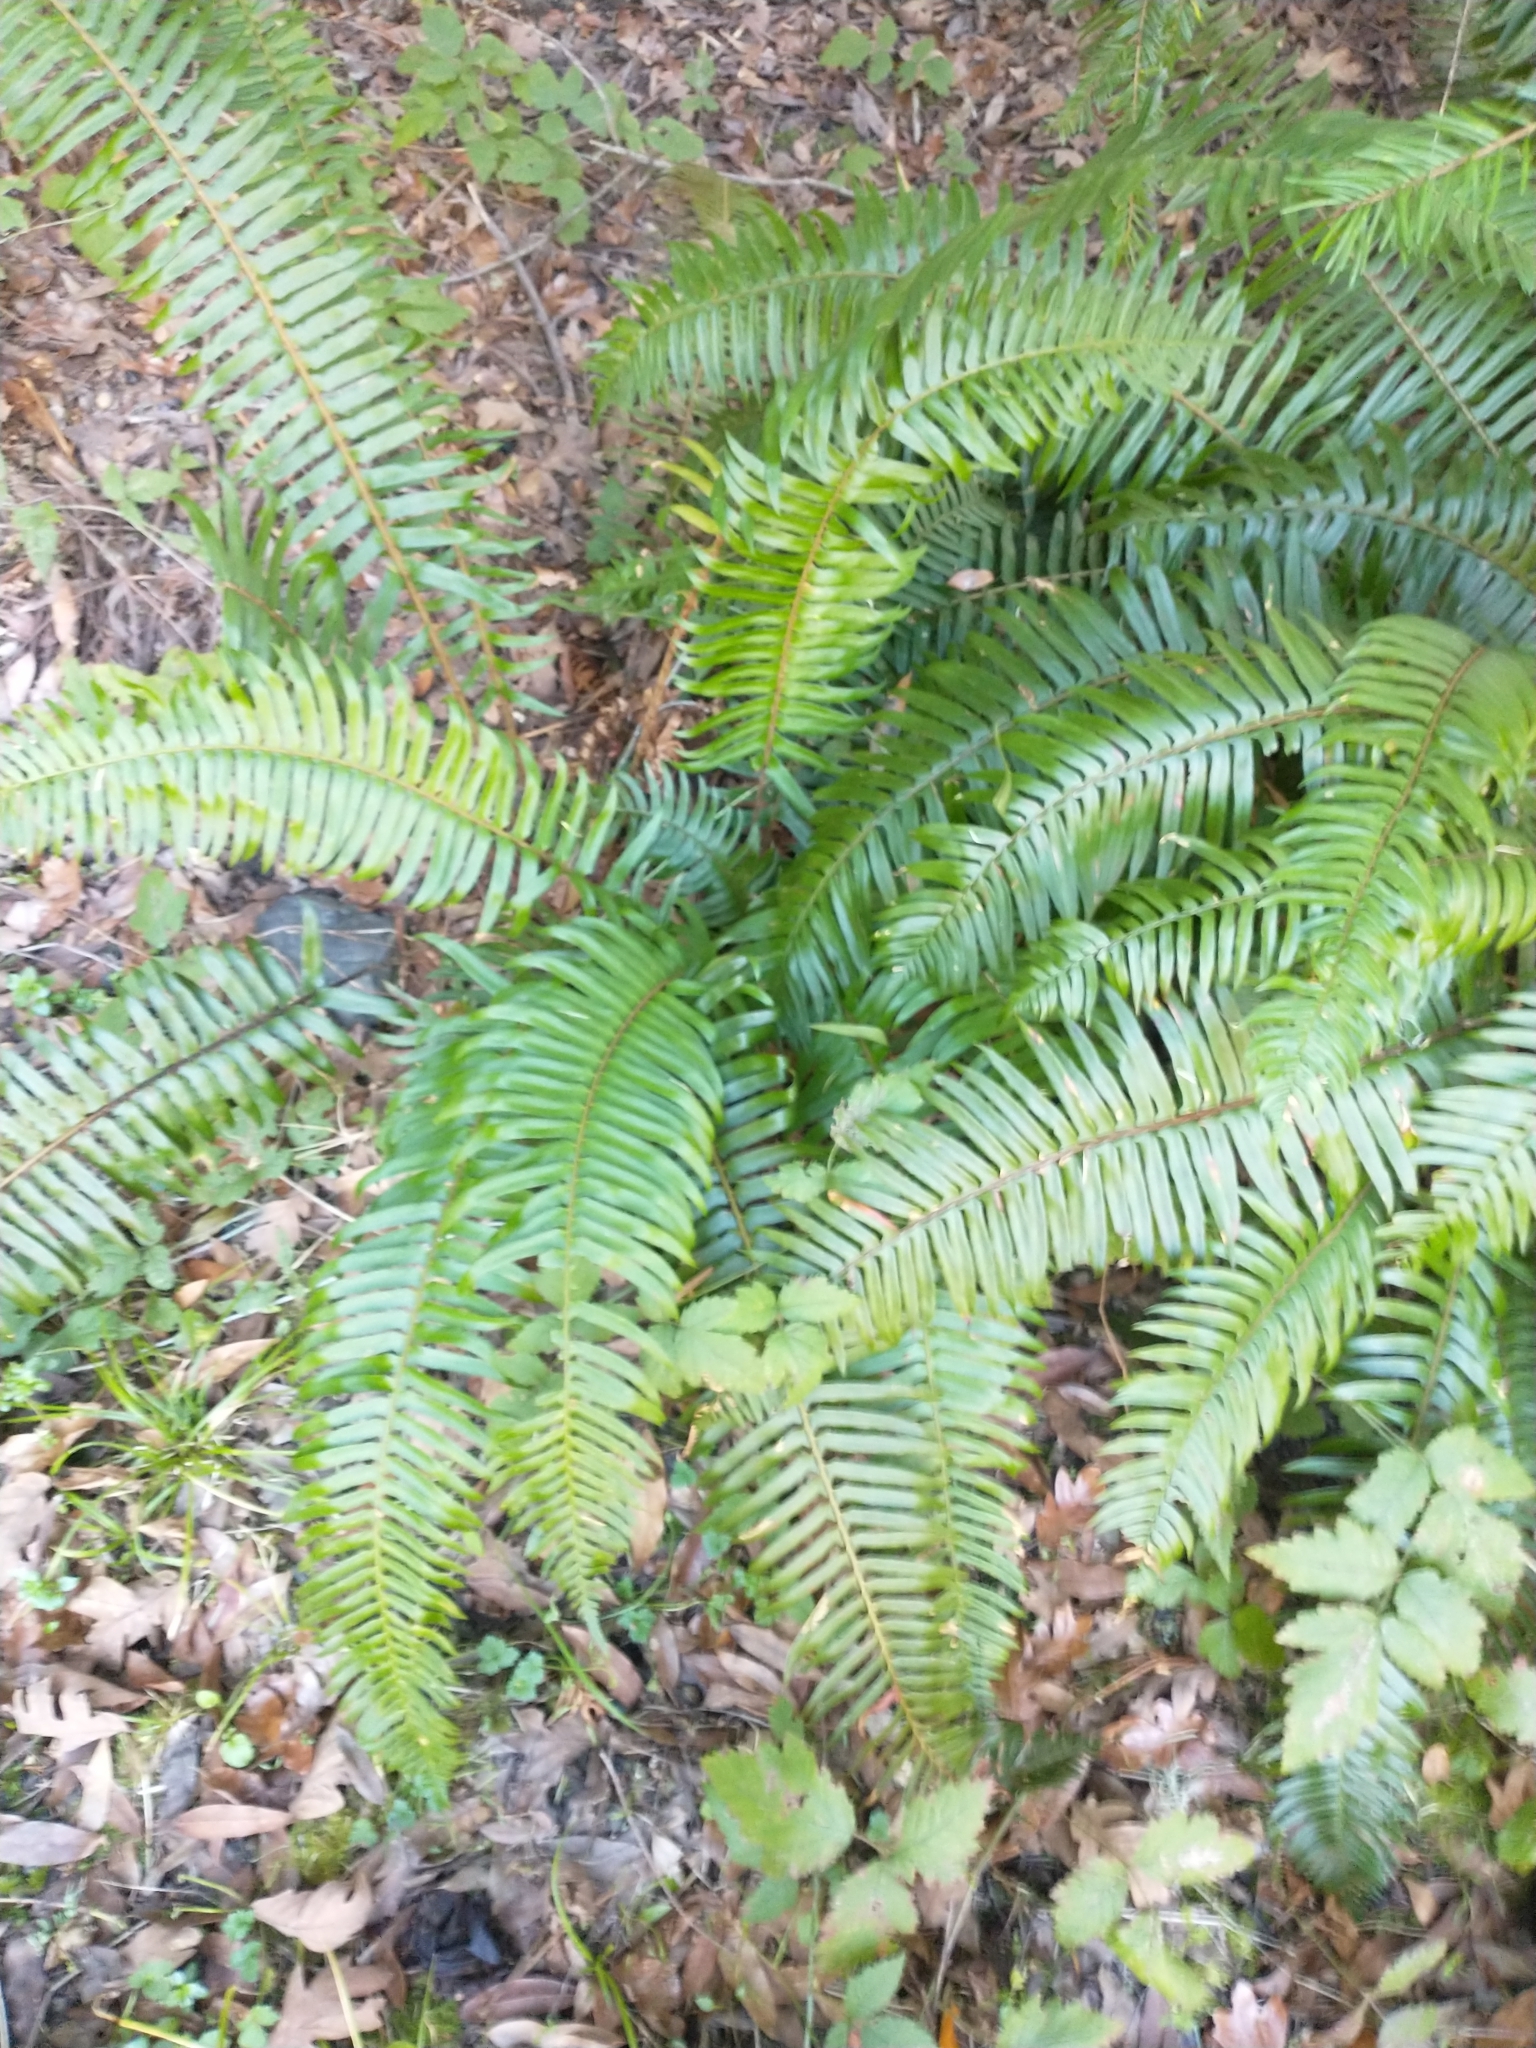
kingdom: Plantae
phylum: Tracheophyta
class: Polypodiopsida
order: Polypodiales
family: Dryopteridaceae
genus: Polystichum
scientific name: Polystichum munitum
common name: Western sword-fern
